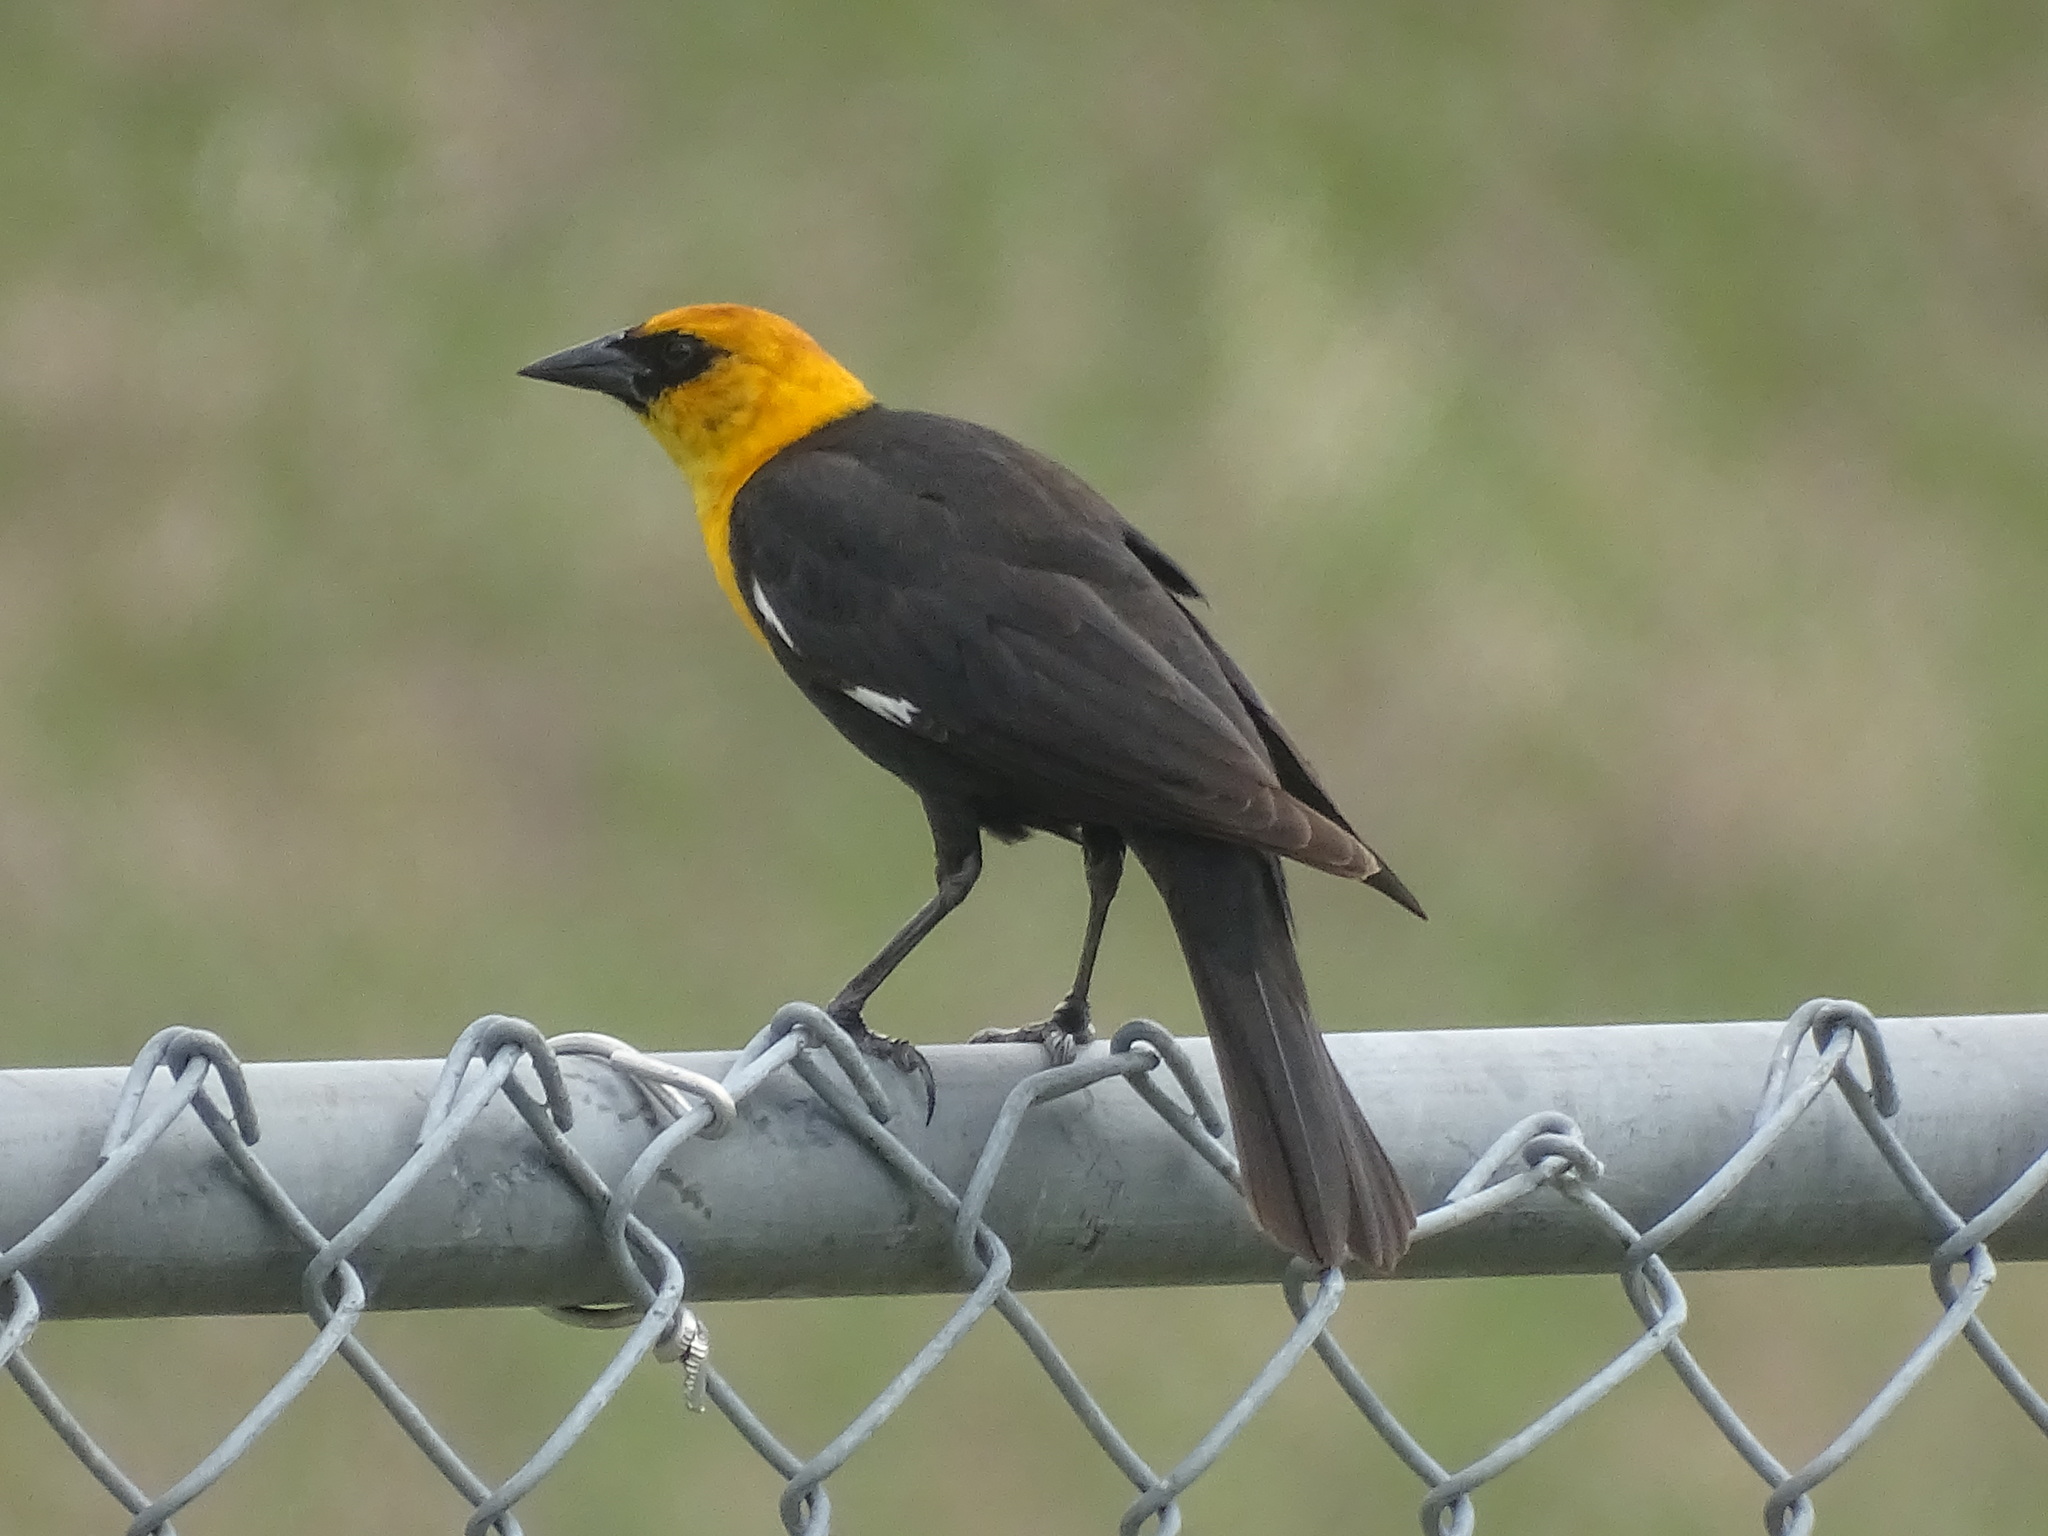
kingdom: Animalia
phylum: Chordata
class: Aves
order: Passeriformes
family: Icteridae
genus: Xanthocephalus
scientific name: Xanthocephalus xanthocephalus
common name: Yellow-headed blackbird
